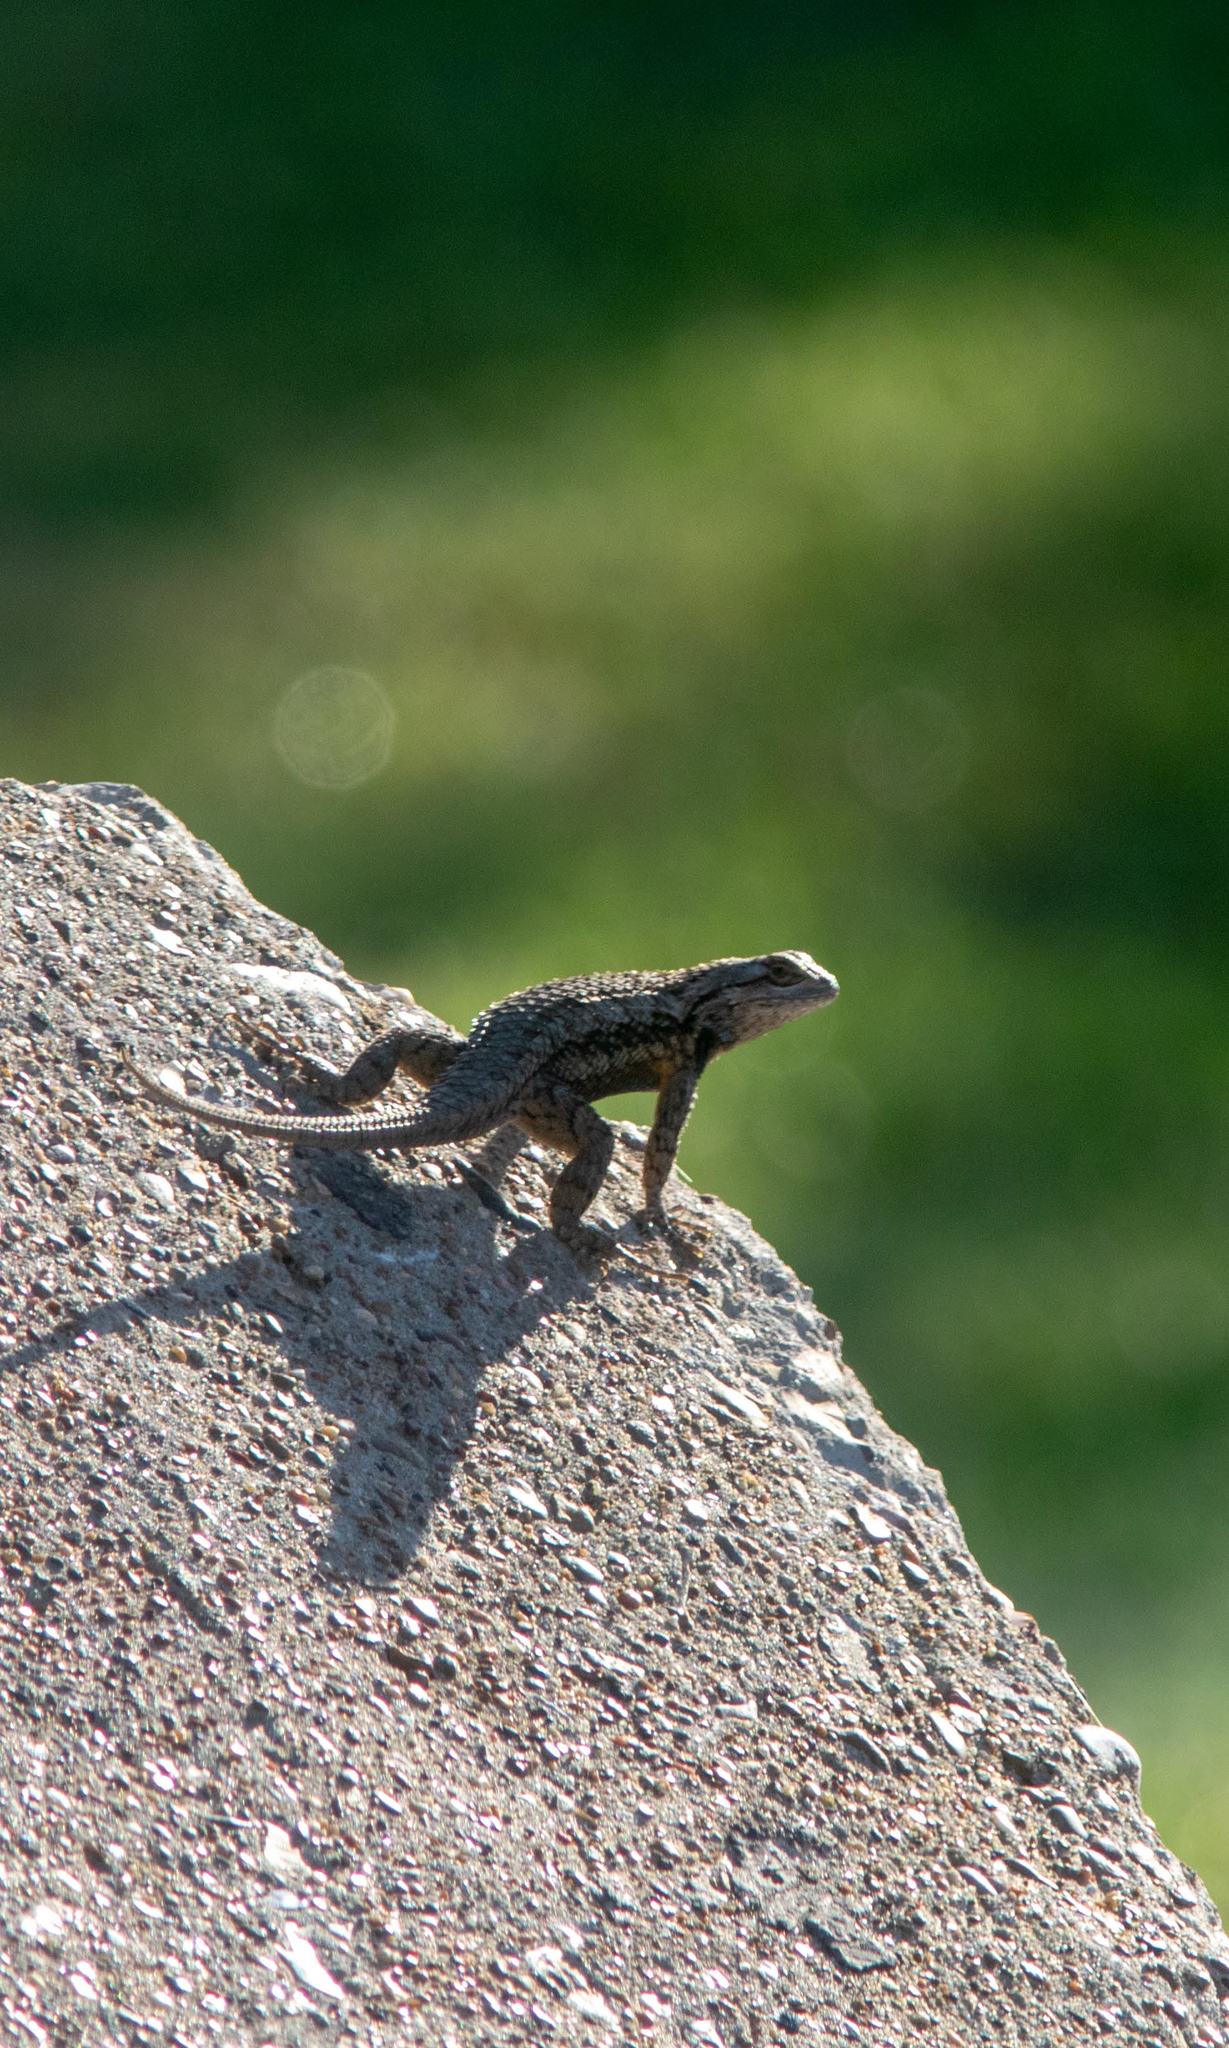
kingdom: Animalia
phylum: Chordata
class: Squamata
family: Phrynosomatidae
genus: Sceloporus
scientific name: Sceloporus olivaceus
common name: Texas spiny lizard
